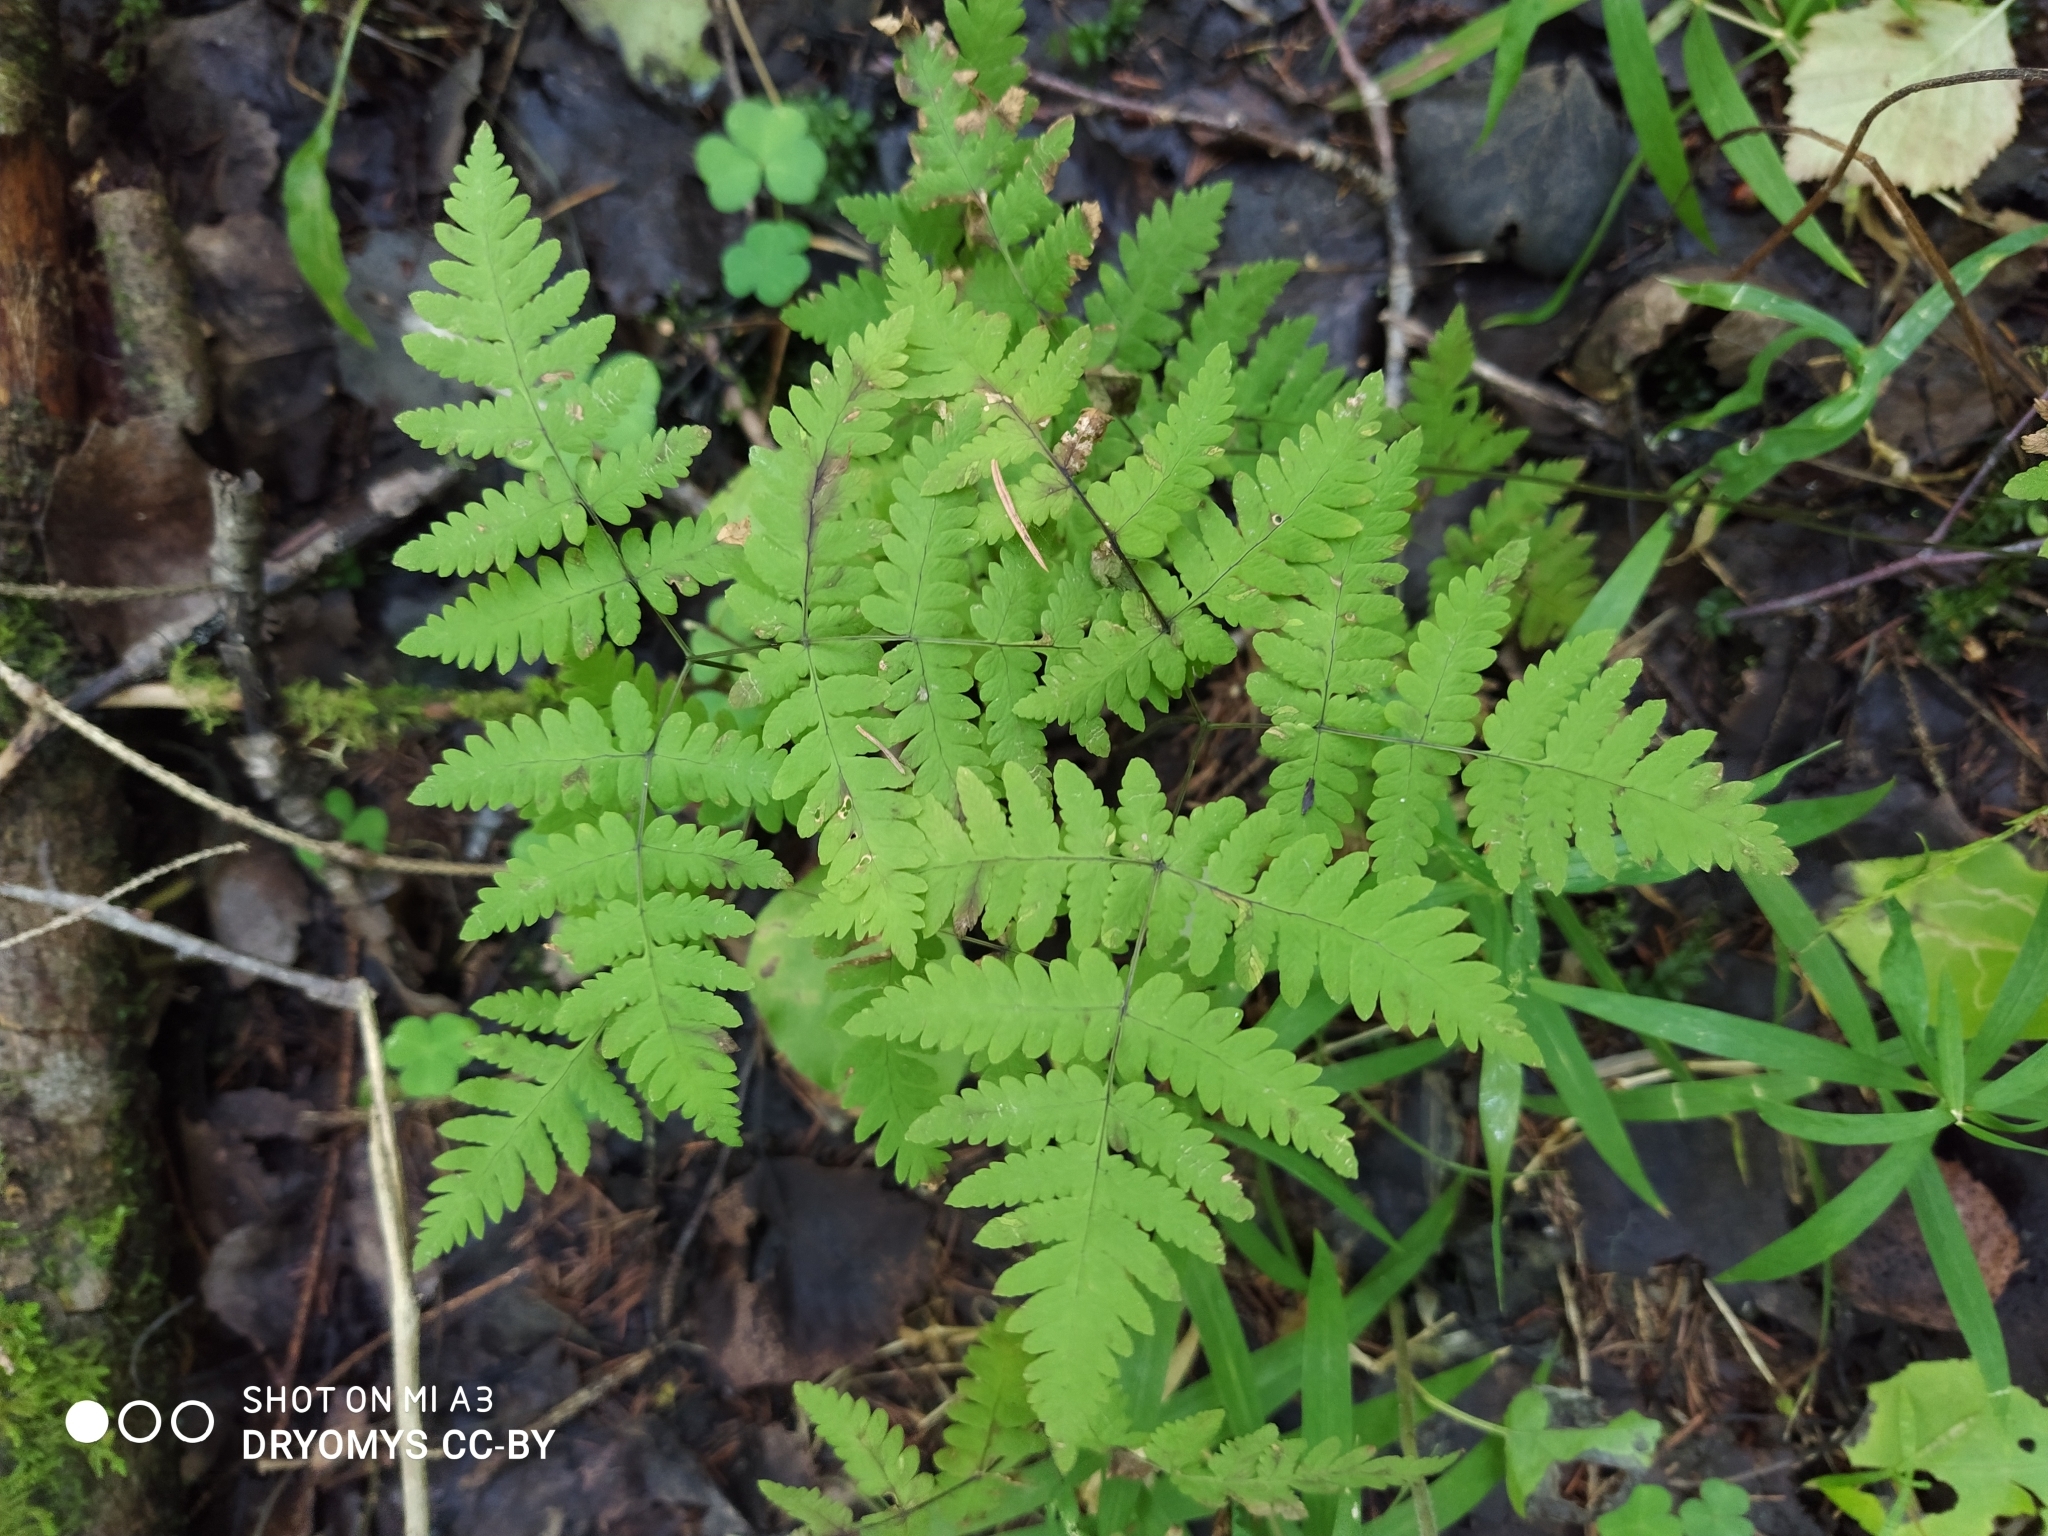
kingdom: Plantae
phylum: Tracheophyta
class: Polypodiopsida
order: Polypodiales
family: Cystopteridaceae
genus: Gymnocarpium
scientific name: Gymnocarpium dryopteris
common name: Oak fern
